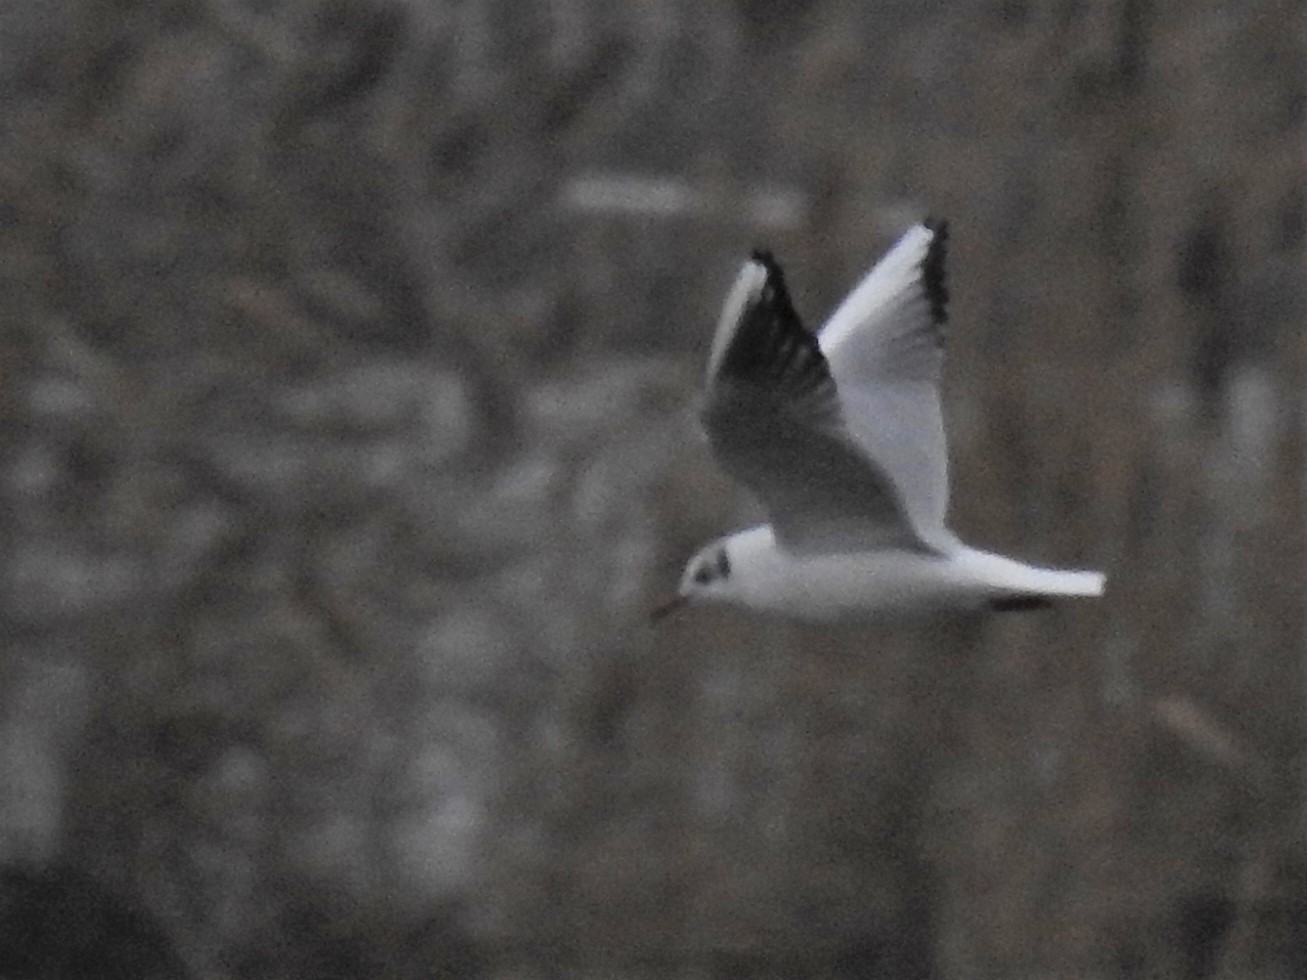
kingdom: Animalia
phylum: Chordata
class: Aves
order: Charadriiformes
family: Laridae
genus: Chroicocephalus
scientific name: Chroicocephalus ridibundus
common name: Black-headed gull
